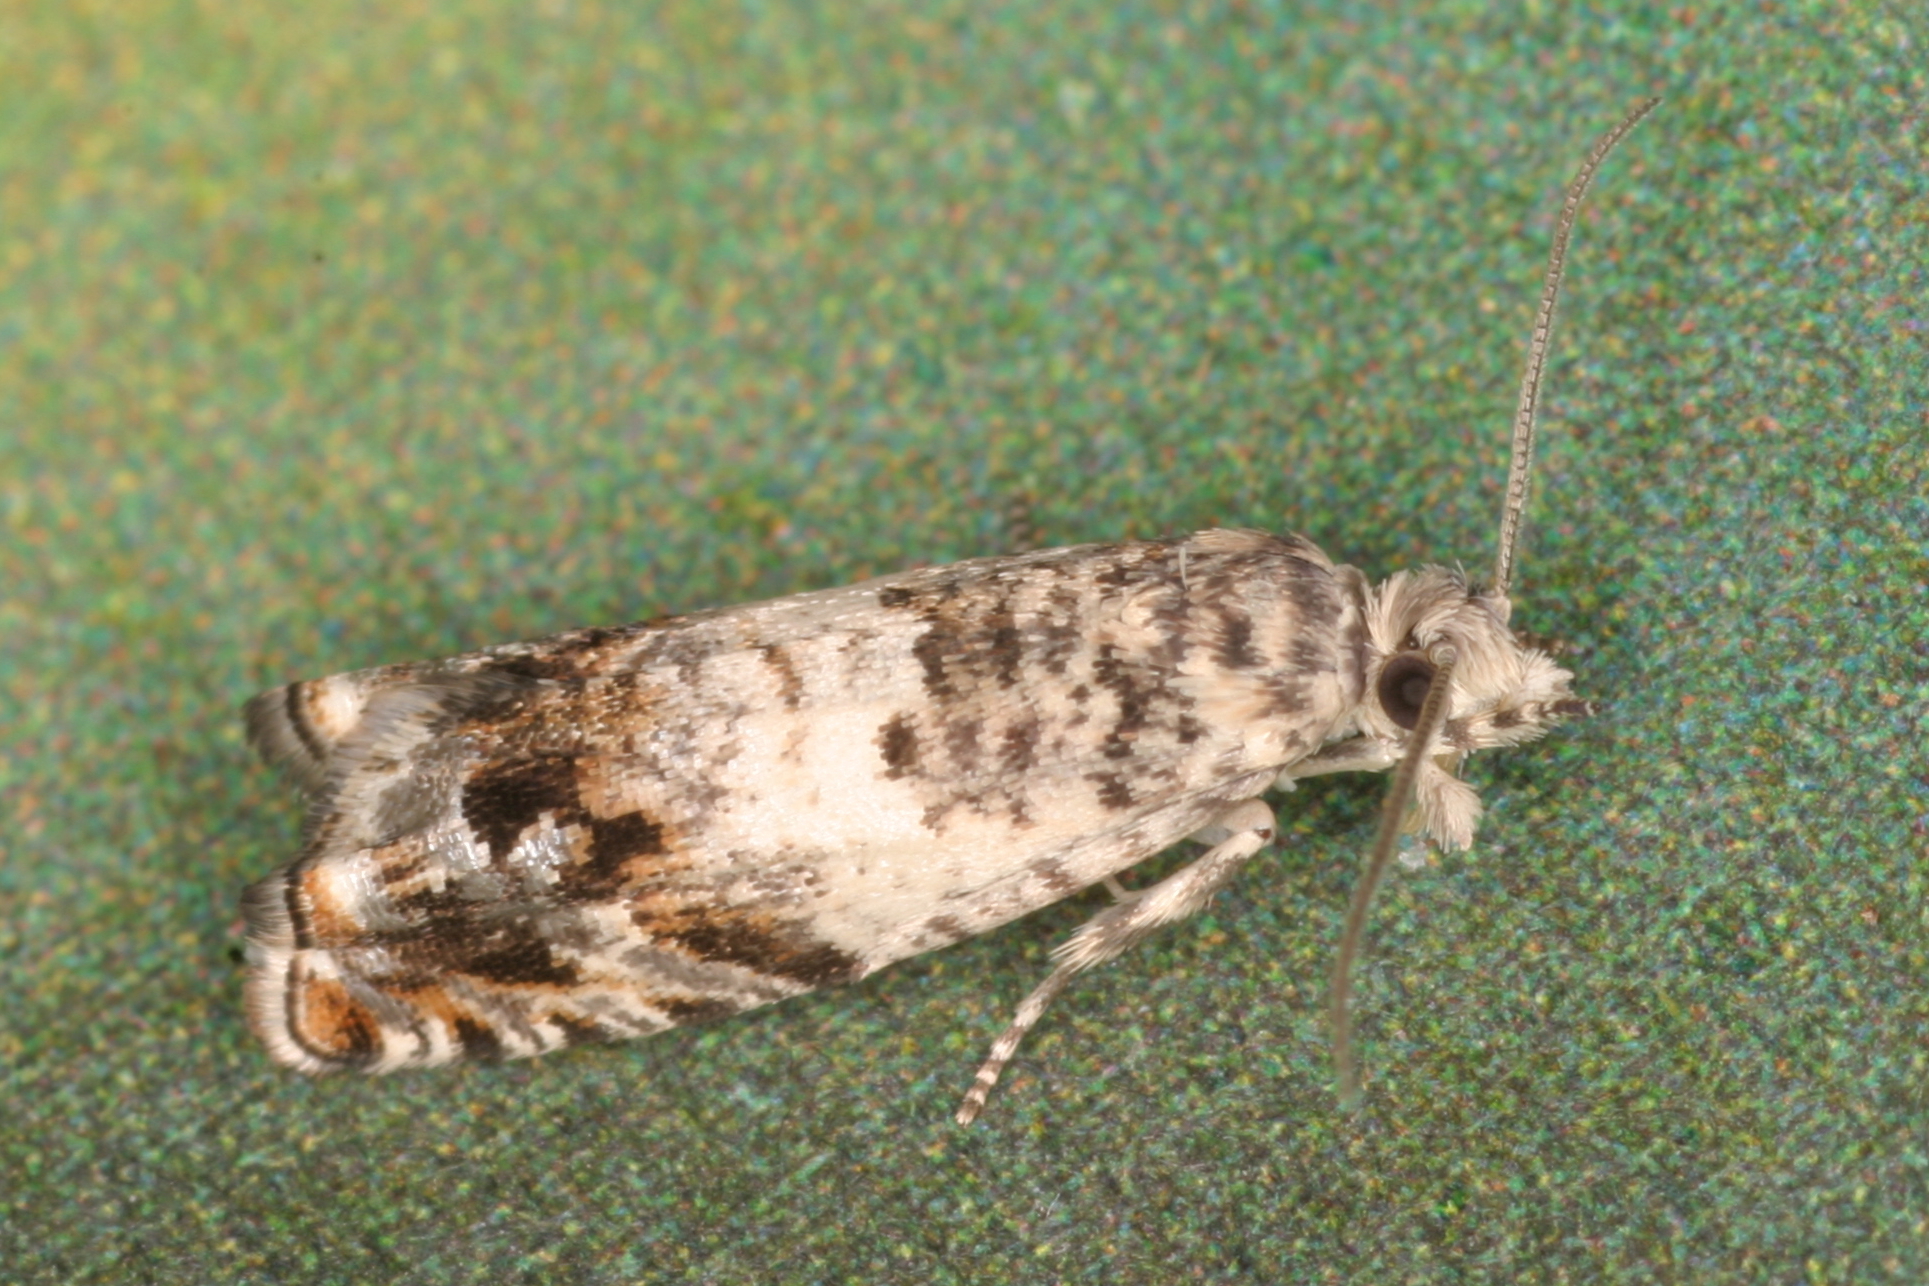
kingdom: Animalia
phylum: Arthropoda
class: Insecta
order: Lepidoptera
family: Tortricidae
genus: Epinotia
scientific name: Epinotia subocellana
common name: White sallow bell
